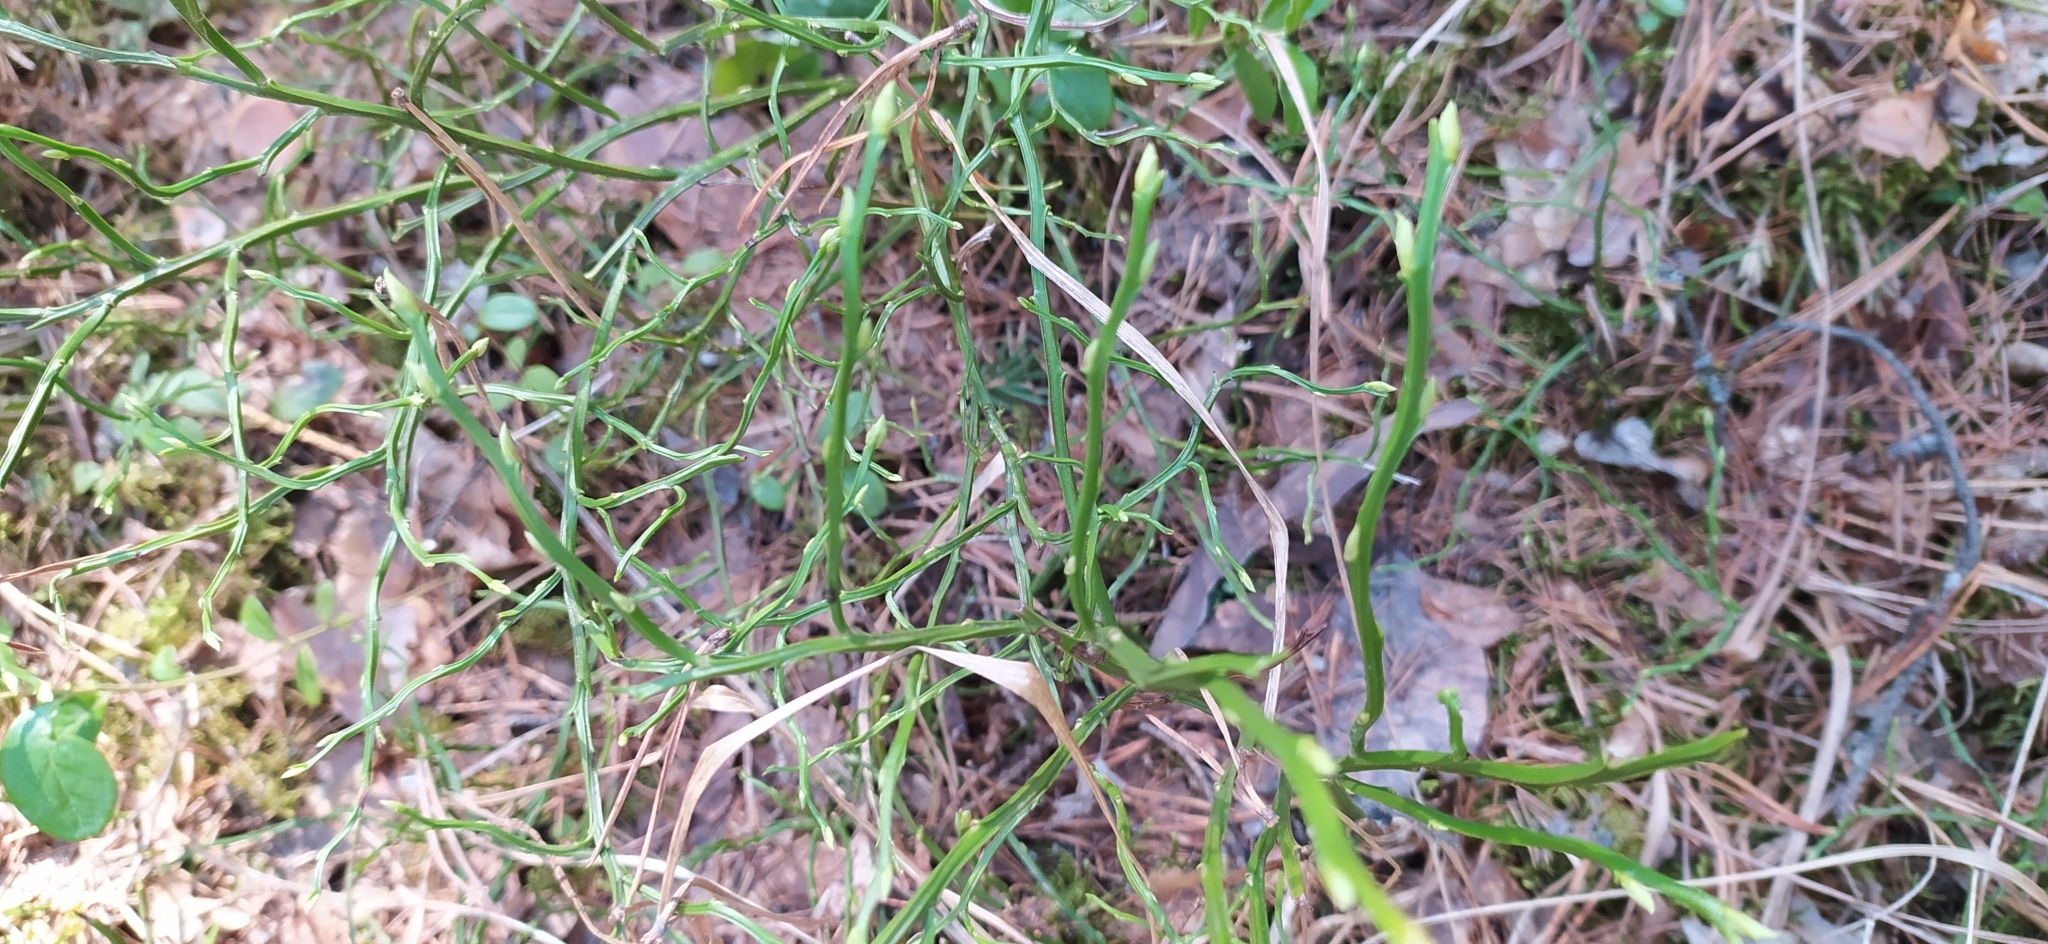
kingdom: Plantae
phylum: Tracheophyta
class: Magnoliopsida
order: Ericales
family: Ericaceae
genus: Vaccinium
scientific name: Vaccinium myrtillus
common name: Bilberry
